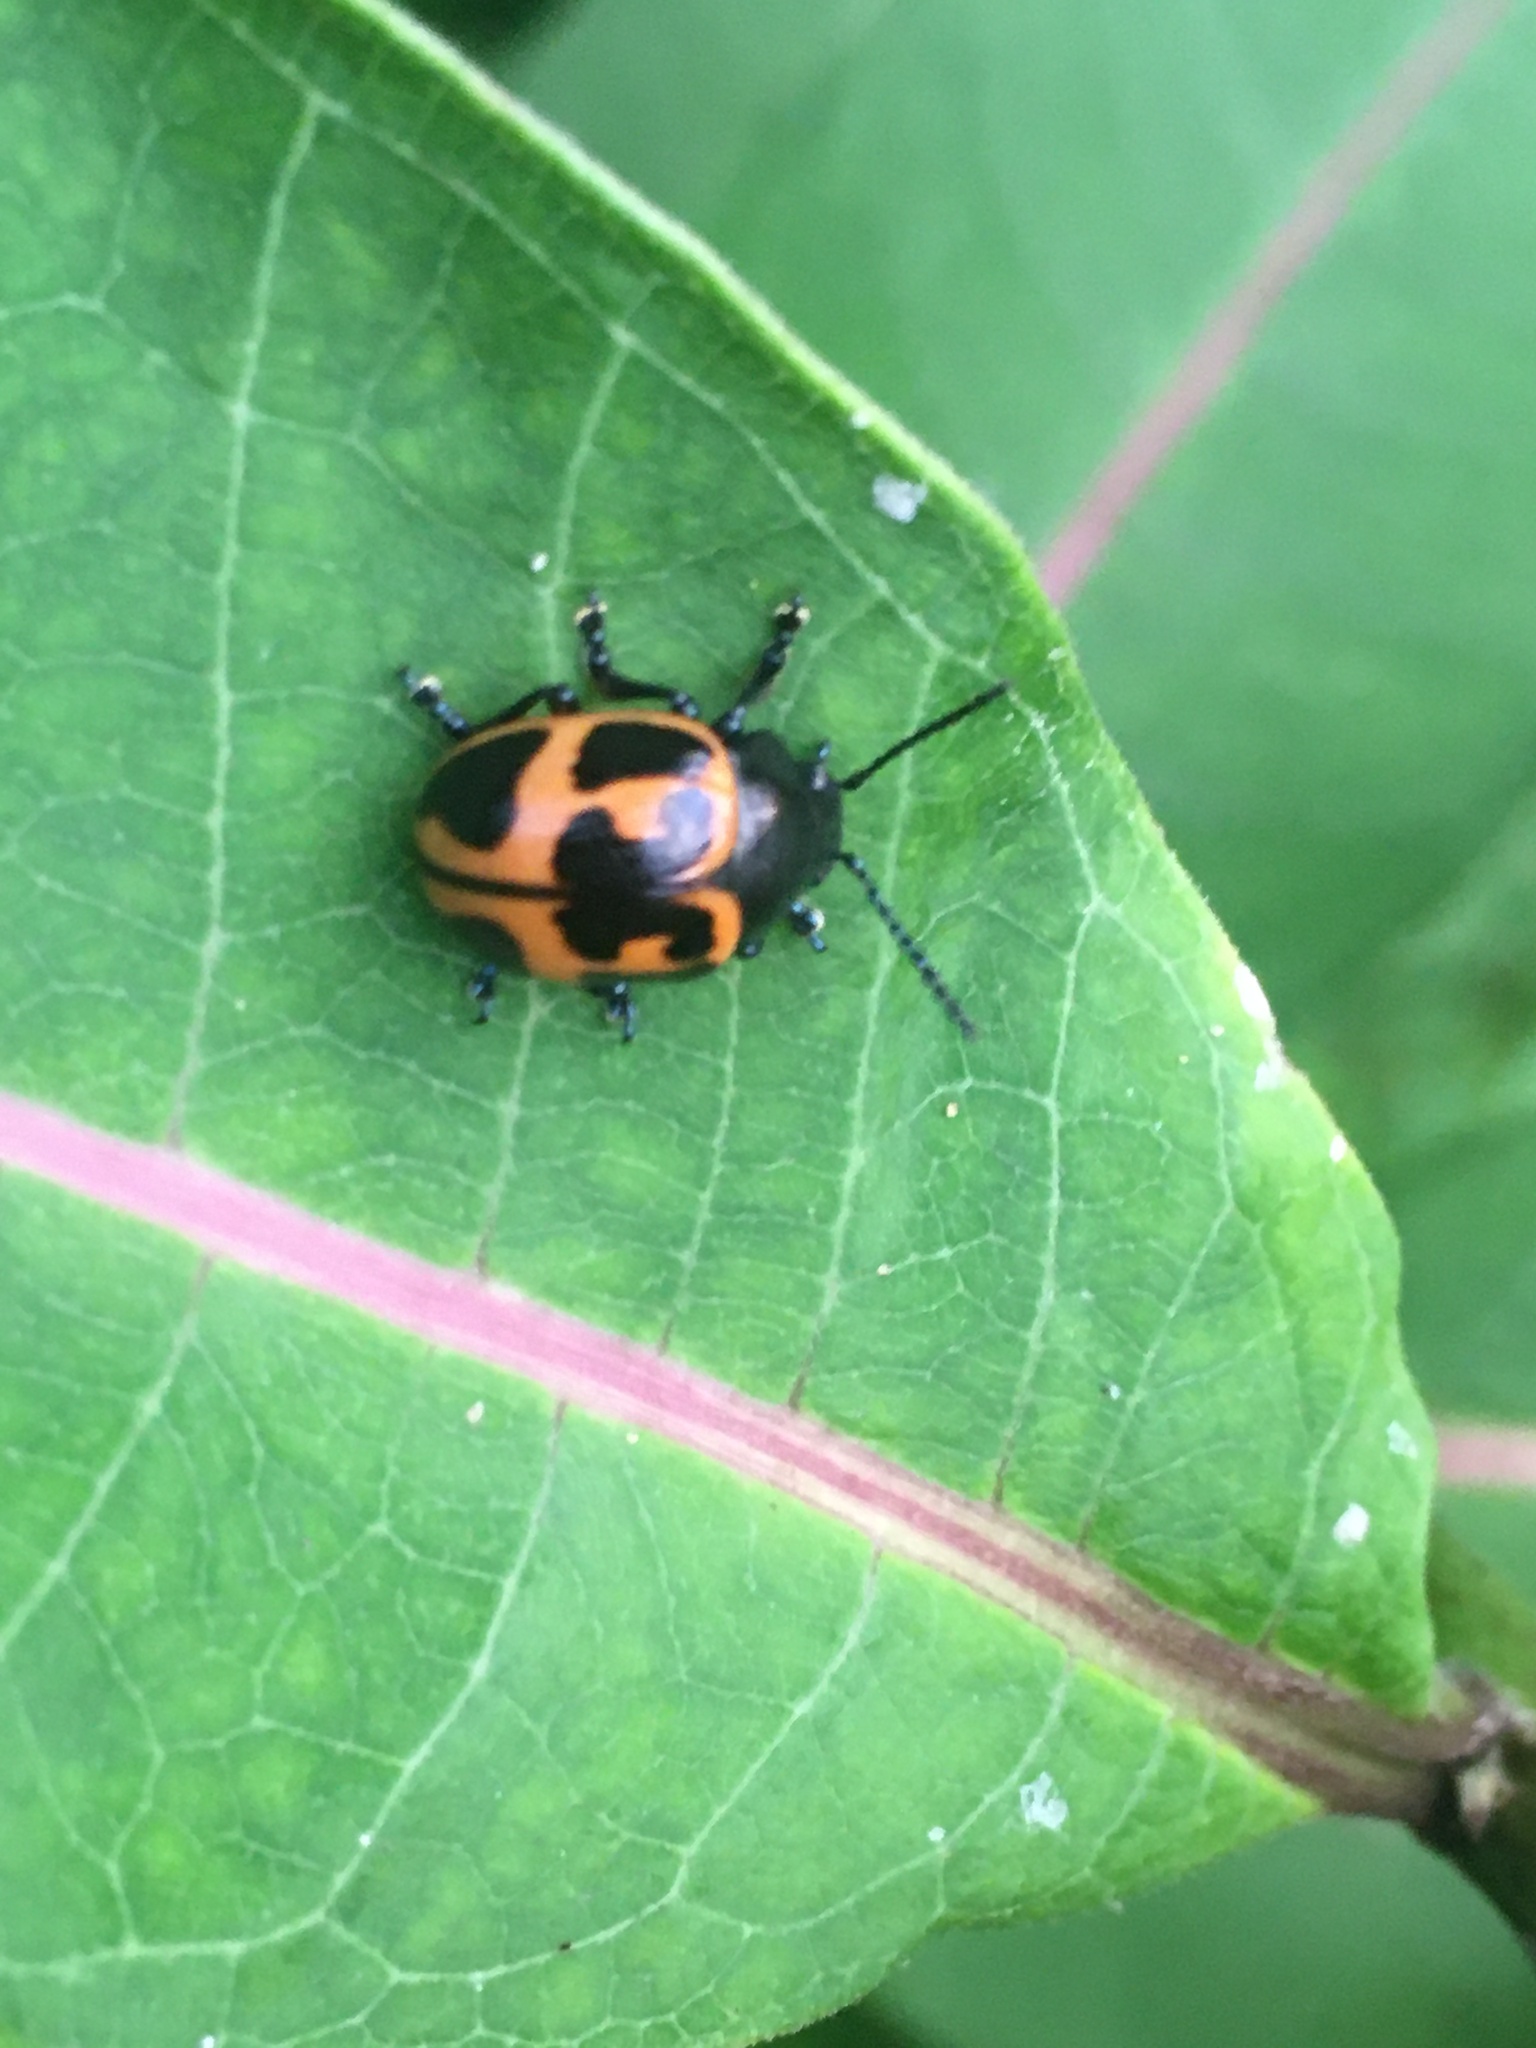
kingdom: Animalia
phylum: Arthropoda
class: Insecta
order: Coleoptera
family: Chrysomelidae
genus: Labidomera
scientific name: Labidomera clivicollis
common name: Swamp milkweed leaf beetle
